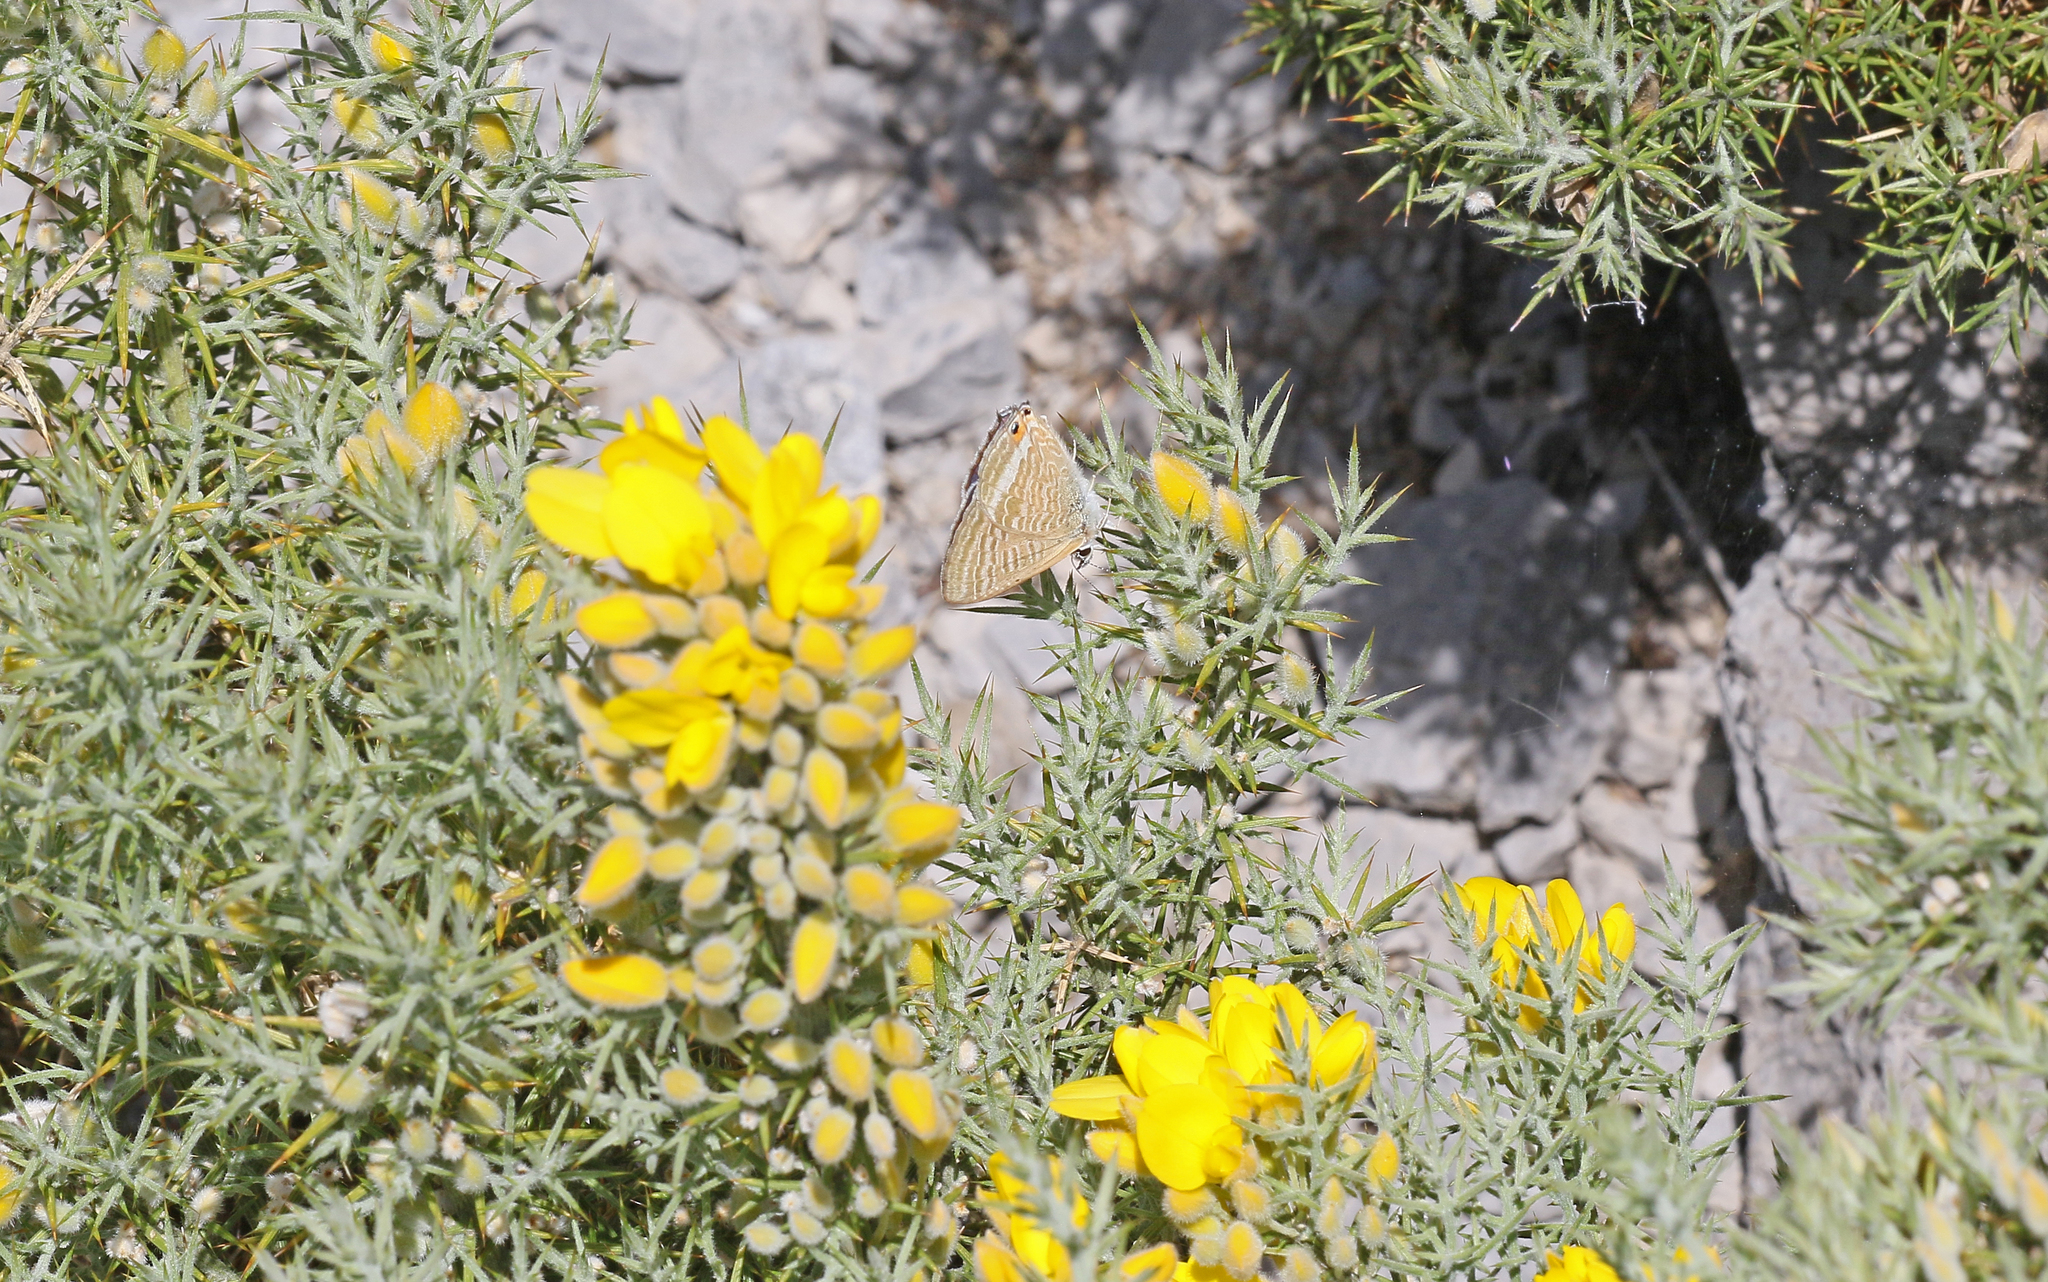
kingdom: Animalia
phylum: Arthropoda
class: Insecta
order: Lepidoptera
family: Lycaenidae
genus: Lampides
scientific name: Lampides boeticus
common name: Long-tailed blue
